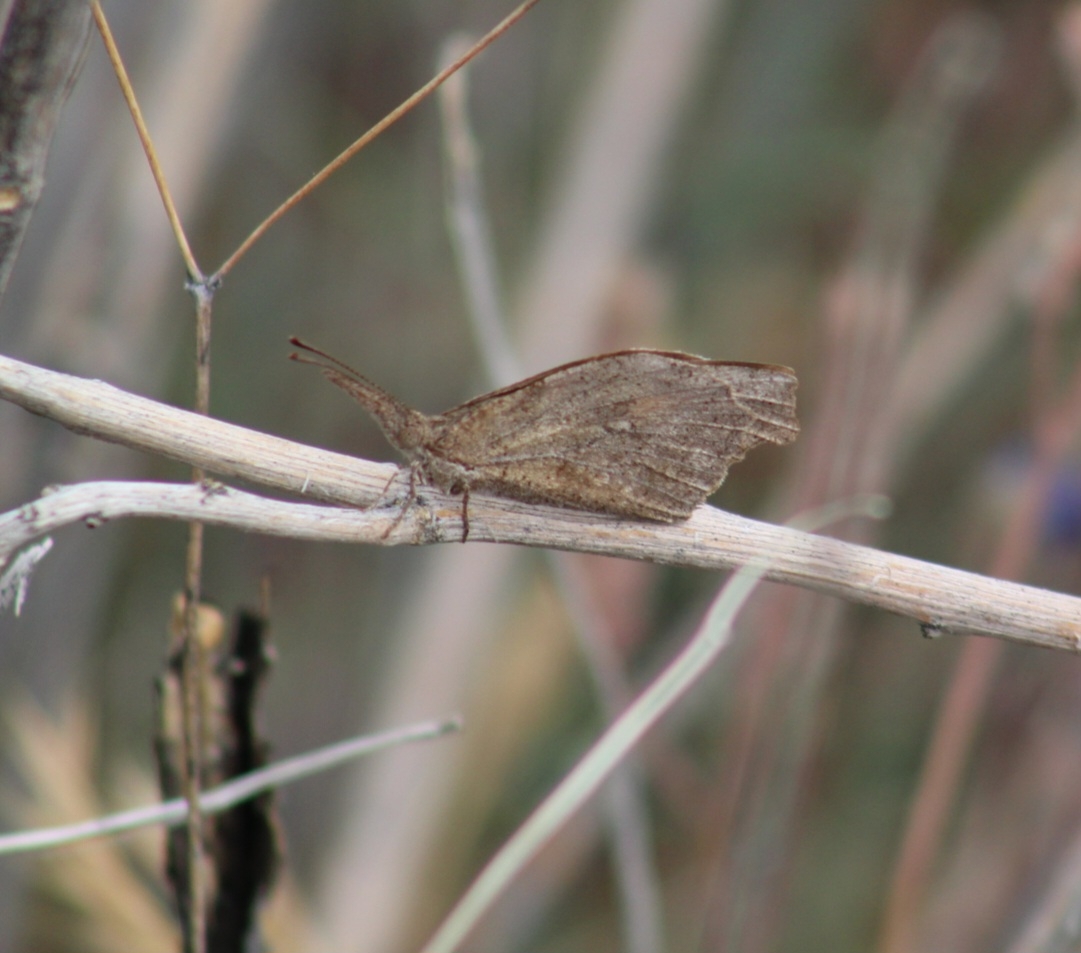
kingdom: Animalia
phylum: Arthropoda
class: Insecta
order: Lepidoptera
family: Nymphalidae
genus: Libytheana
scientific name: Libytheana carinenta
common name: American snout
